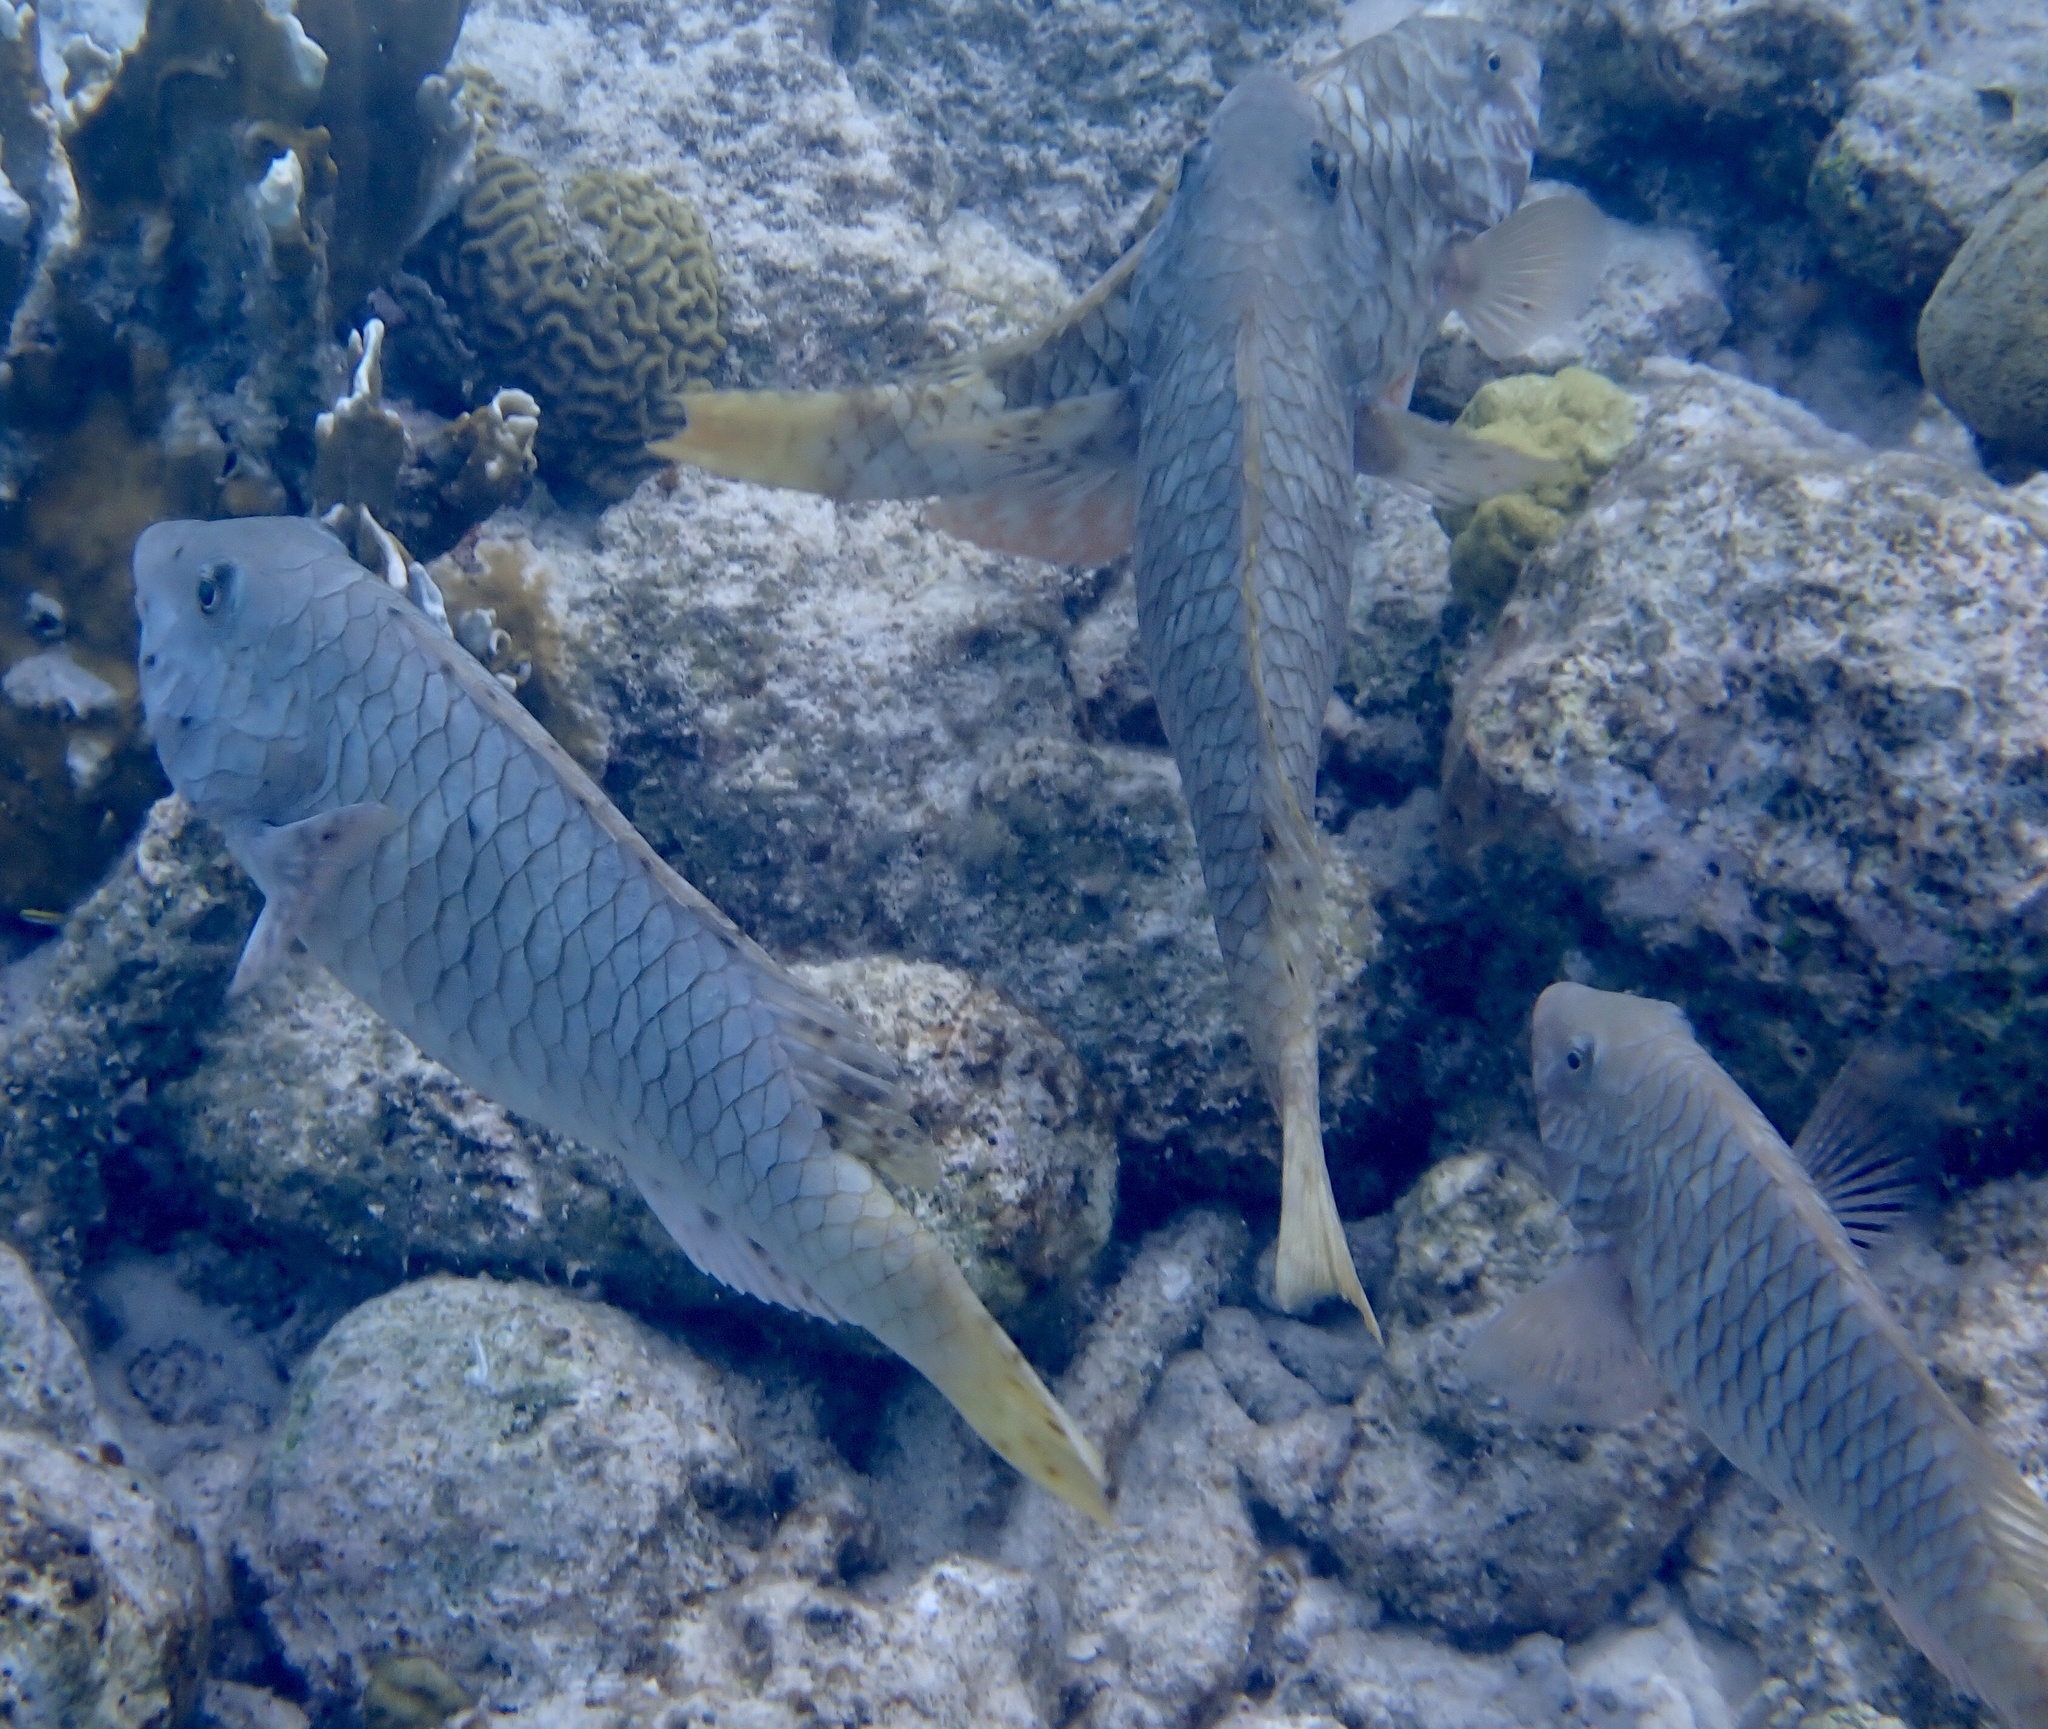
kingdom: Animalia
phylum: Chordata
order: Perciformes
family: Scaridae
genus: Sparisoma
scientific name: Sparisoma rubripinne
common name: Redfin parrotfish
